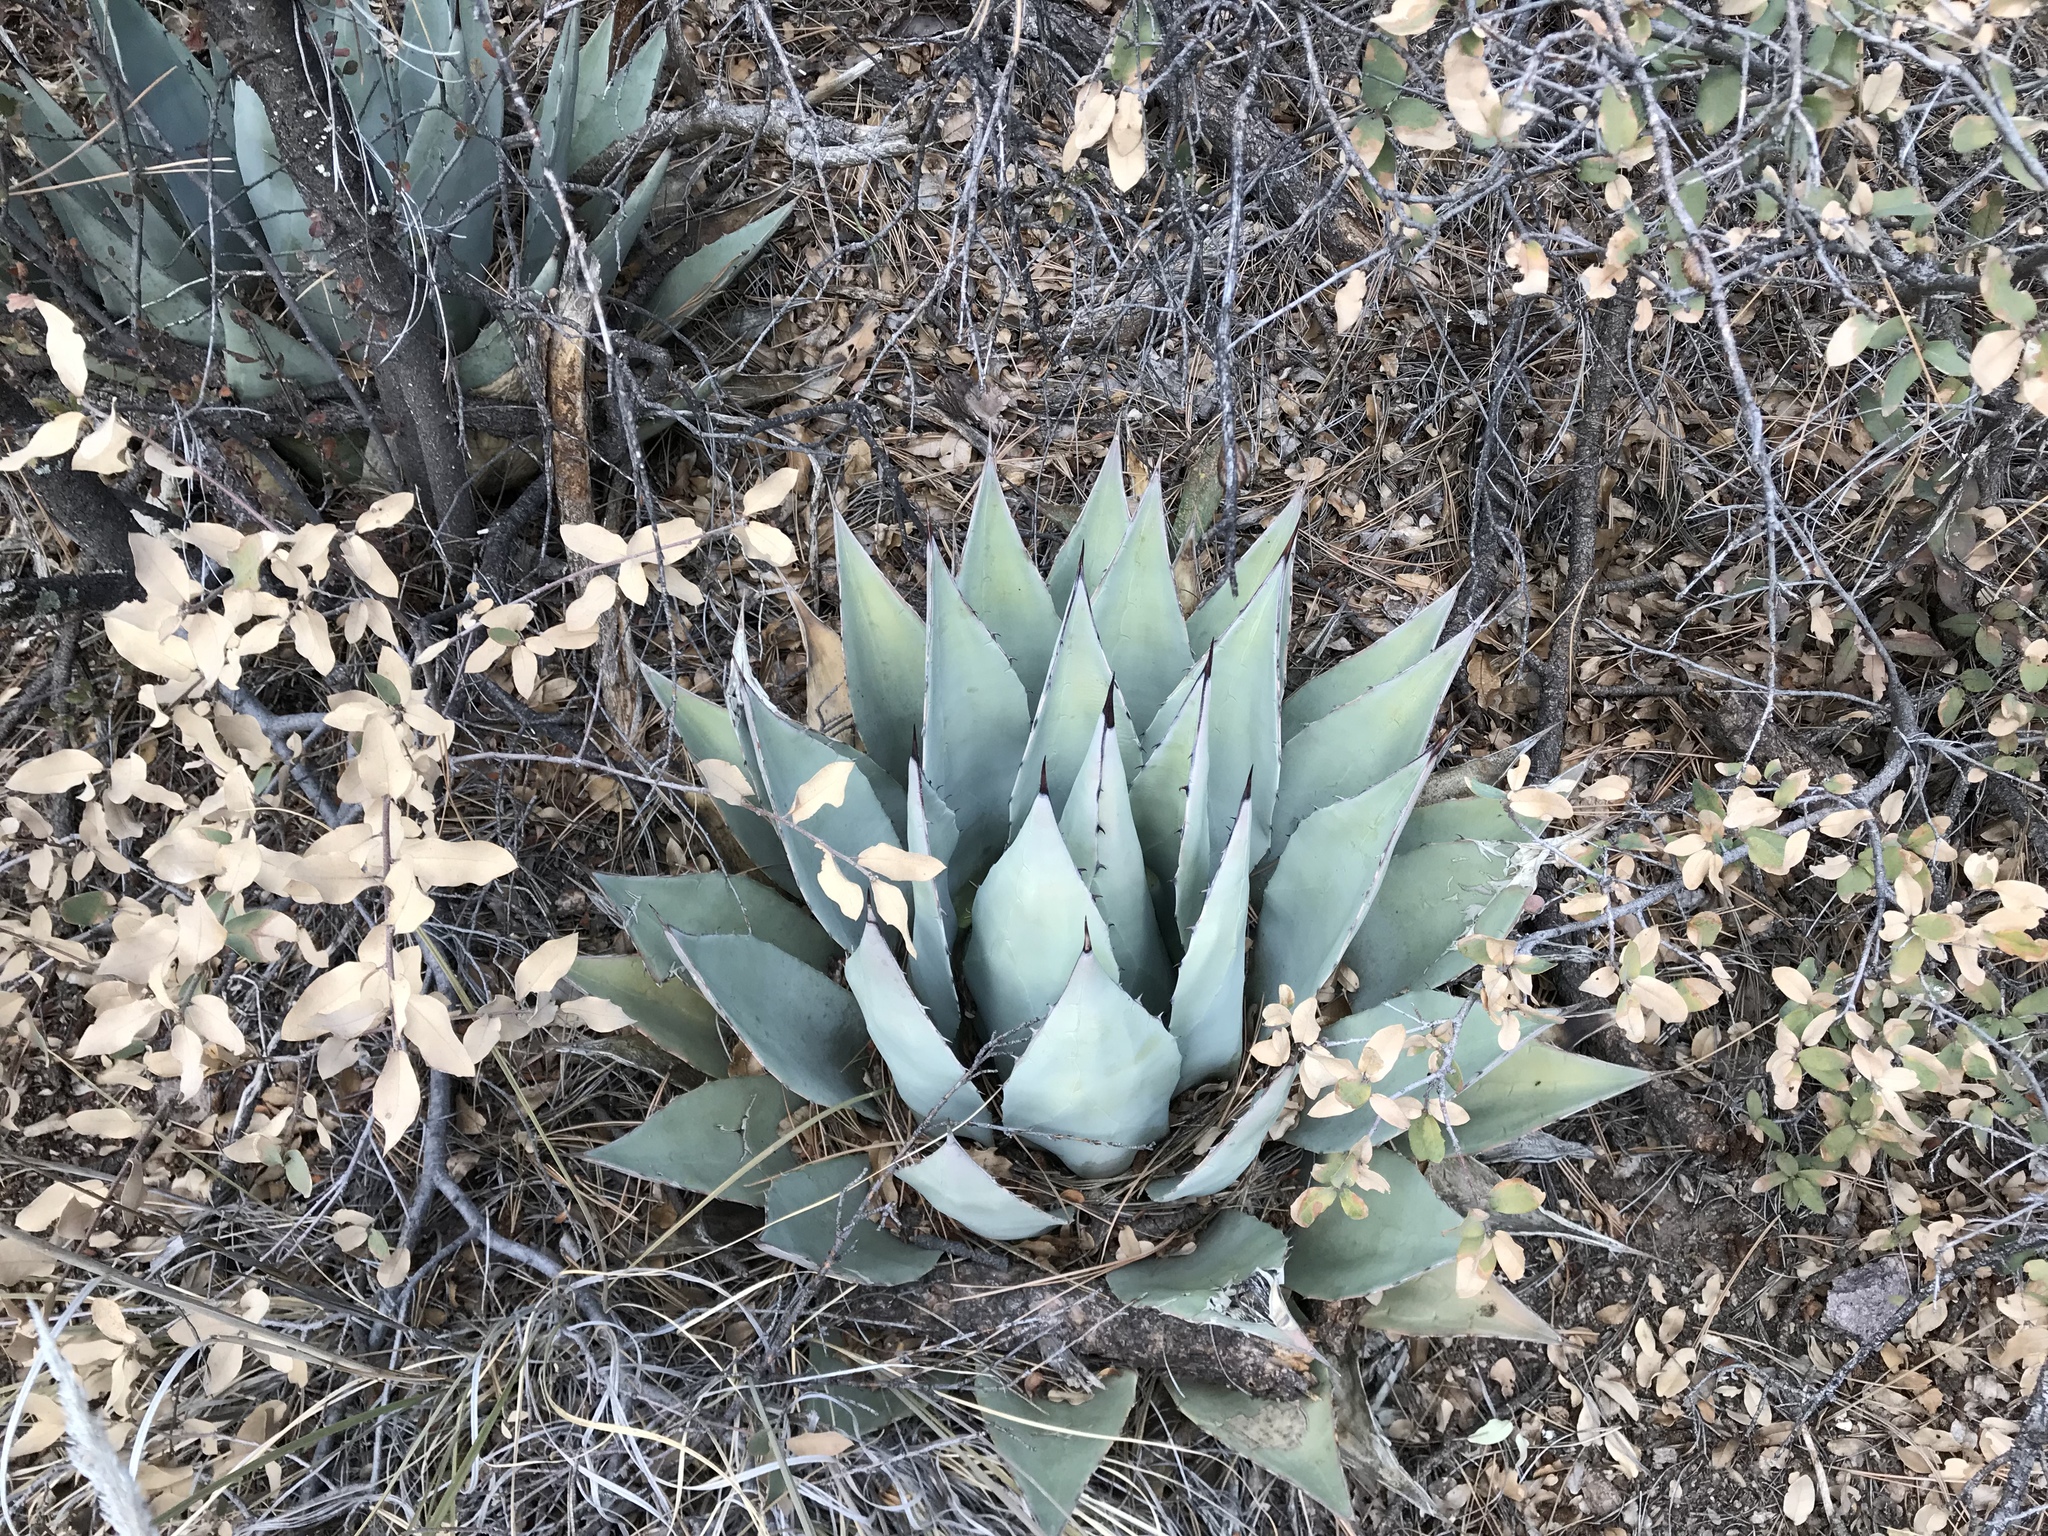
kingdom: Plantae
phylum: Tracheophyta
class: Liliopsida
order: Asparagales
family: Asparagaceae
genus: Agave
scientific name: Agave parryi
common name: Parry's agave
